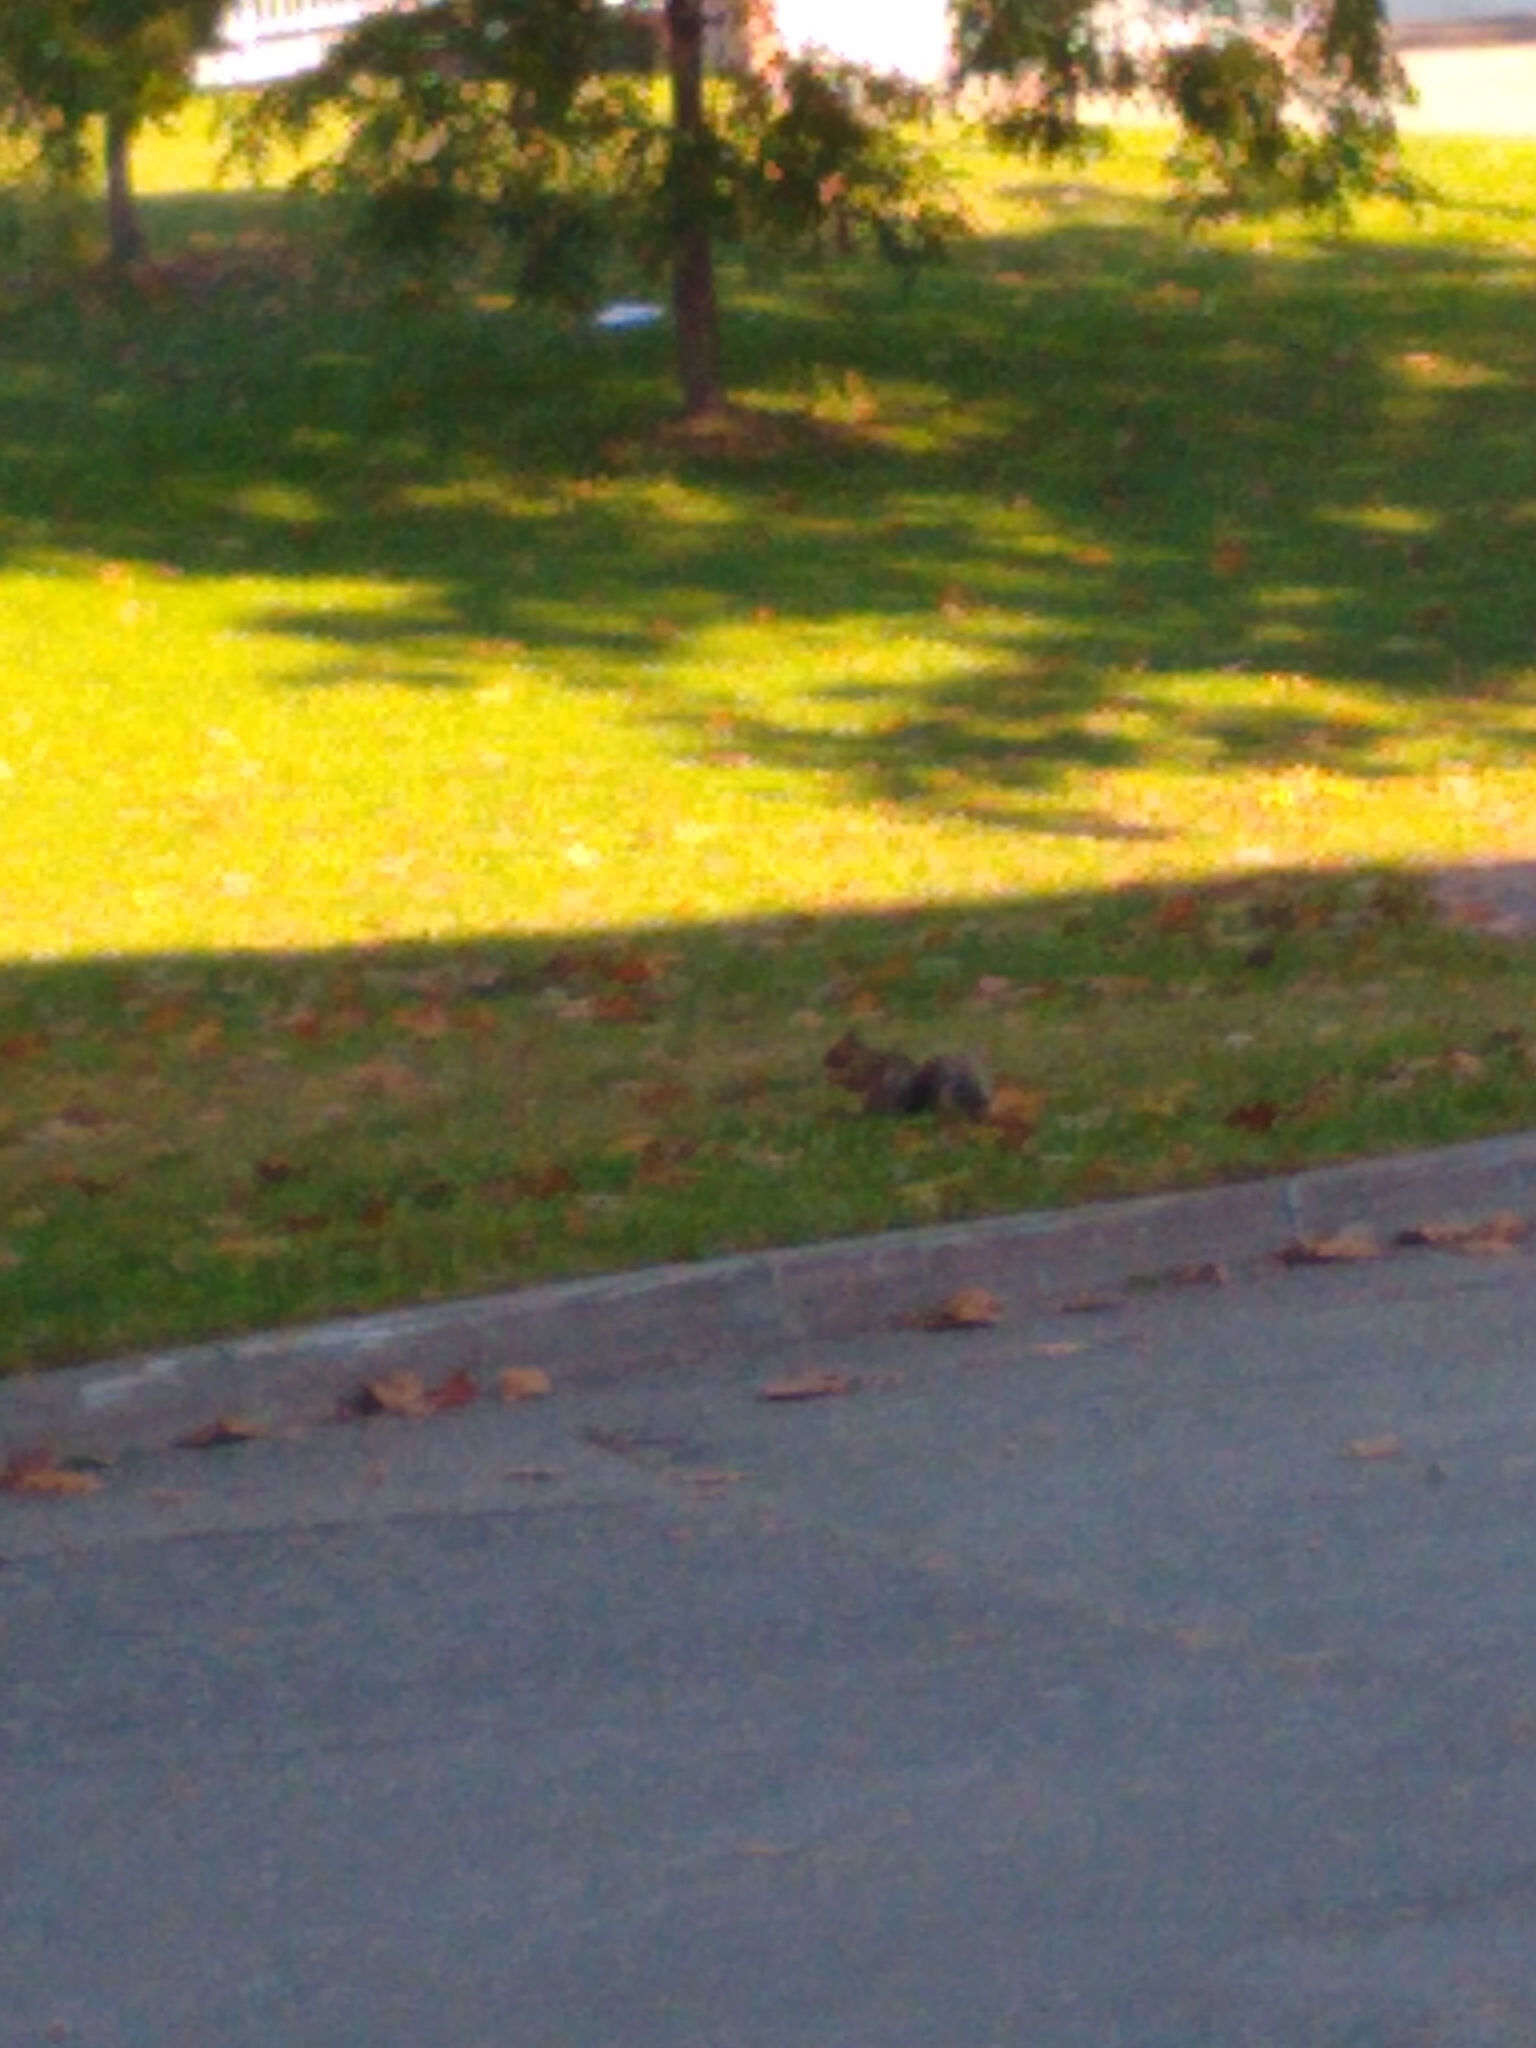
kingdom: Animalia
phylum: Chordata
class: Mammalia
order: Rodentia
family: Sciuridae
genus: Sciurus
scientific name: Sciurus carolinensis
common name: Eastern gray squirrel
